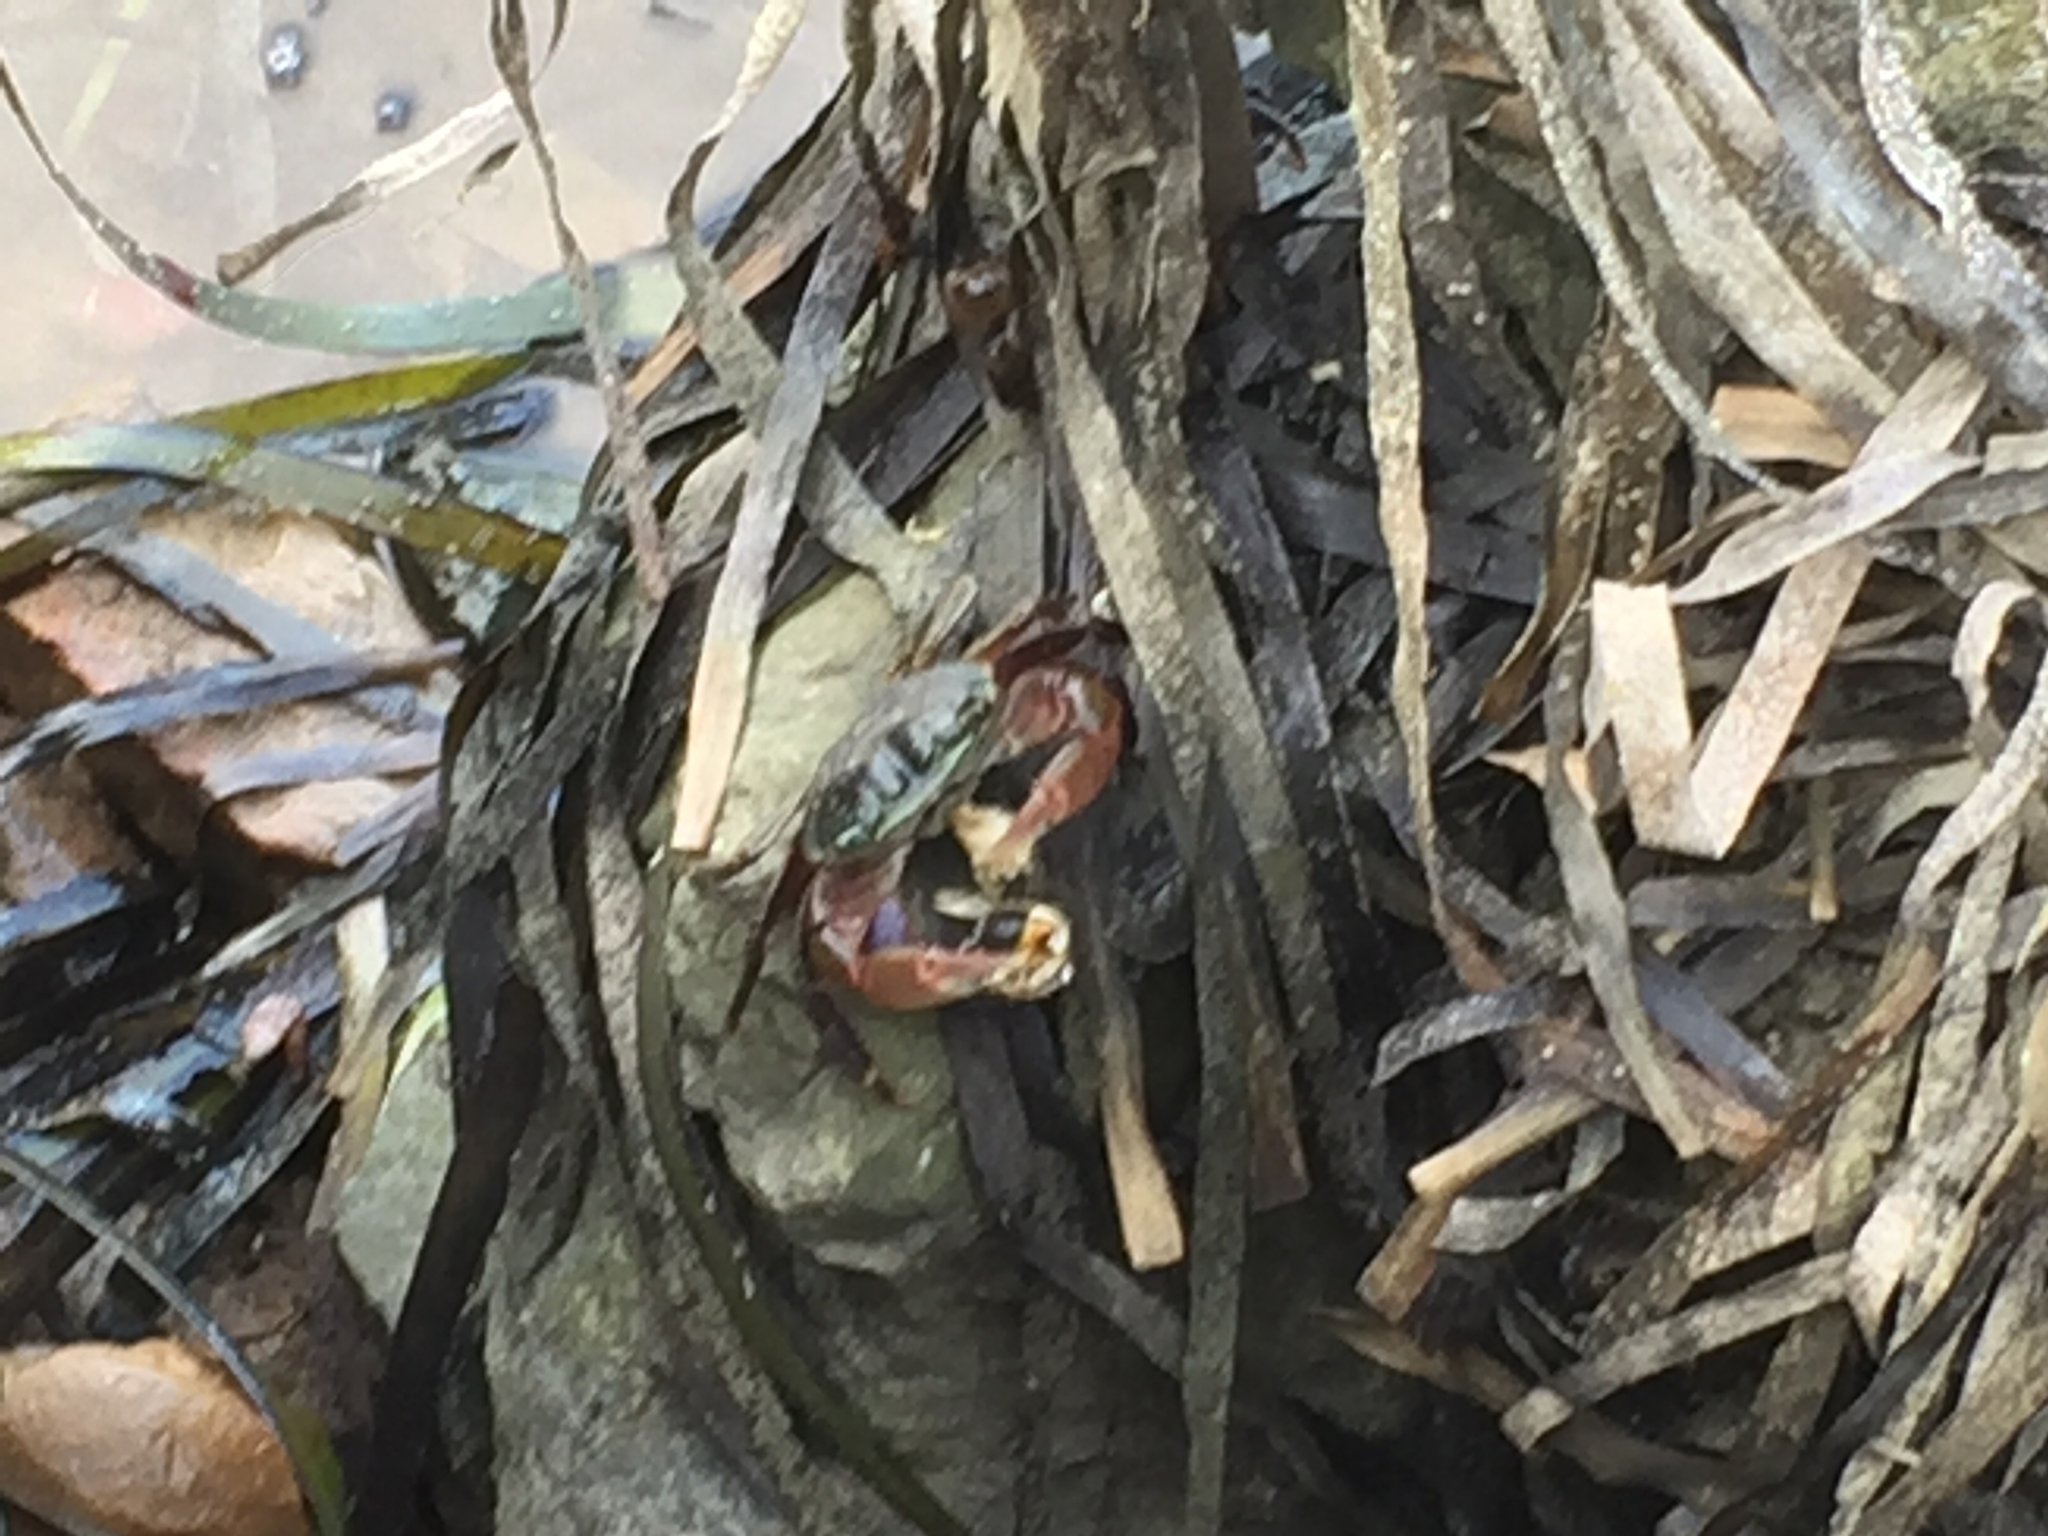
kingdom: Animalia
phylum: Arthropoda
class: Malacostraca
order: Decapoda
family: Grapsidae
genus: Pachygrapsus
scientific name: Pachygrapsus crassipes
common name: Striped shore crab
